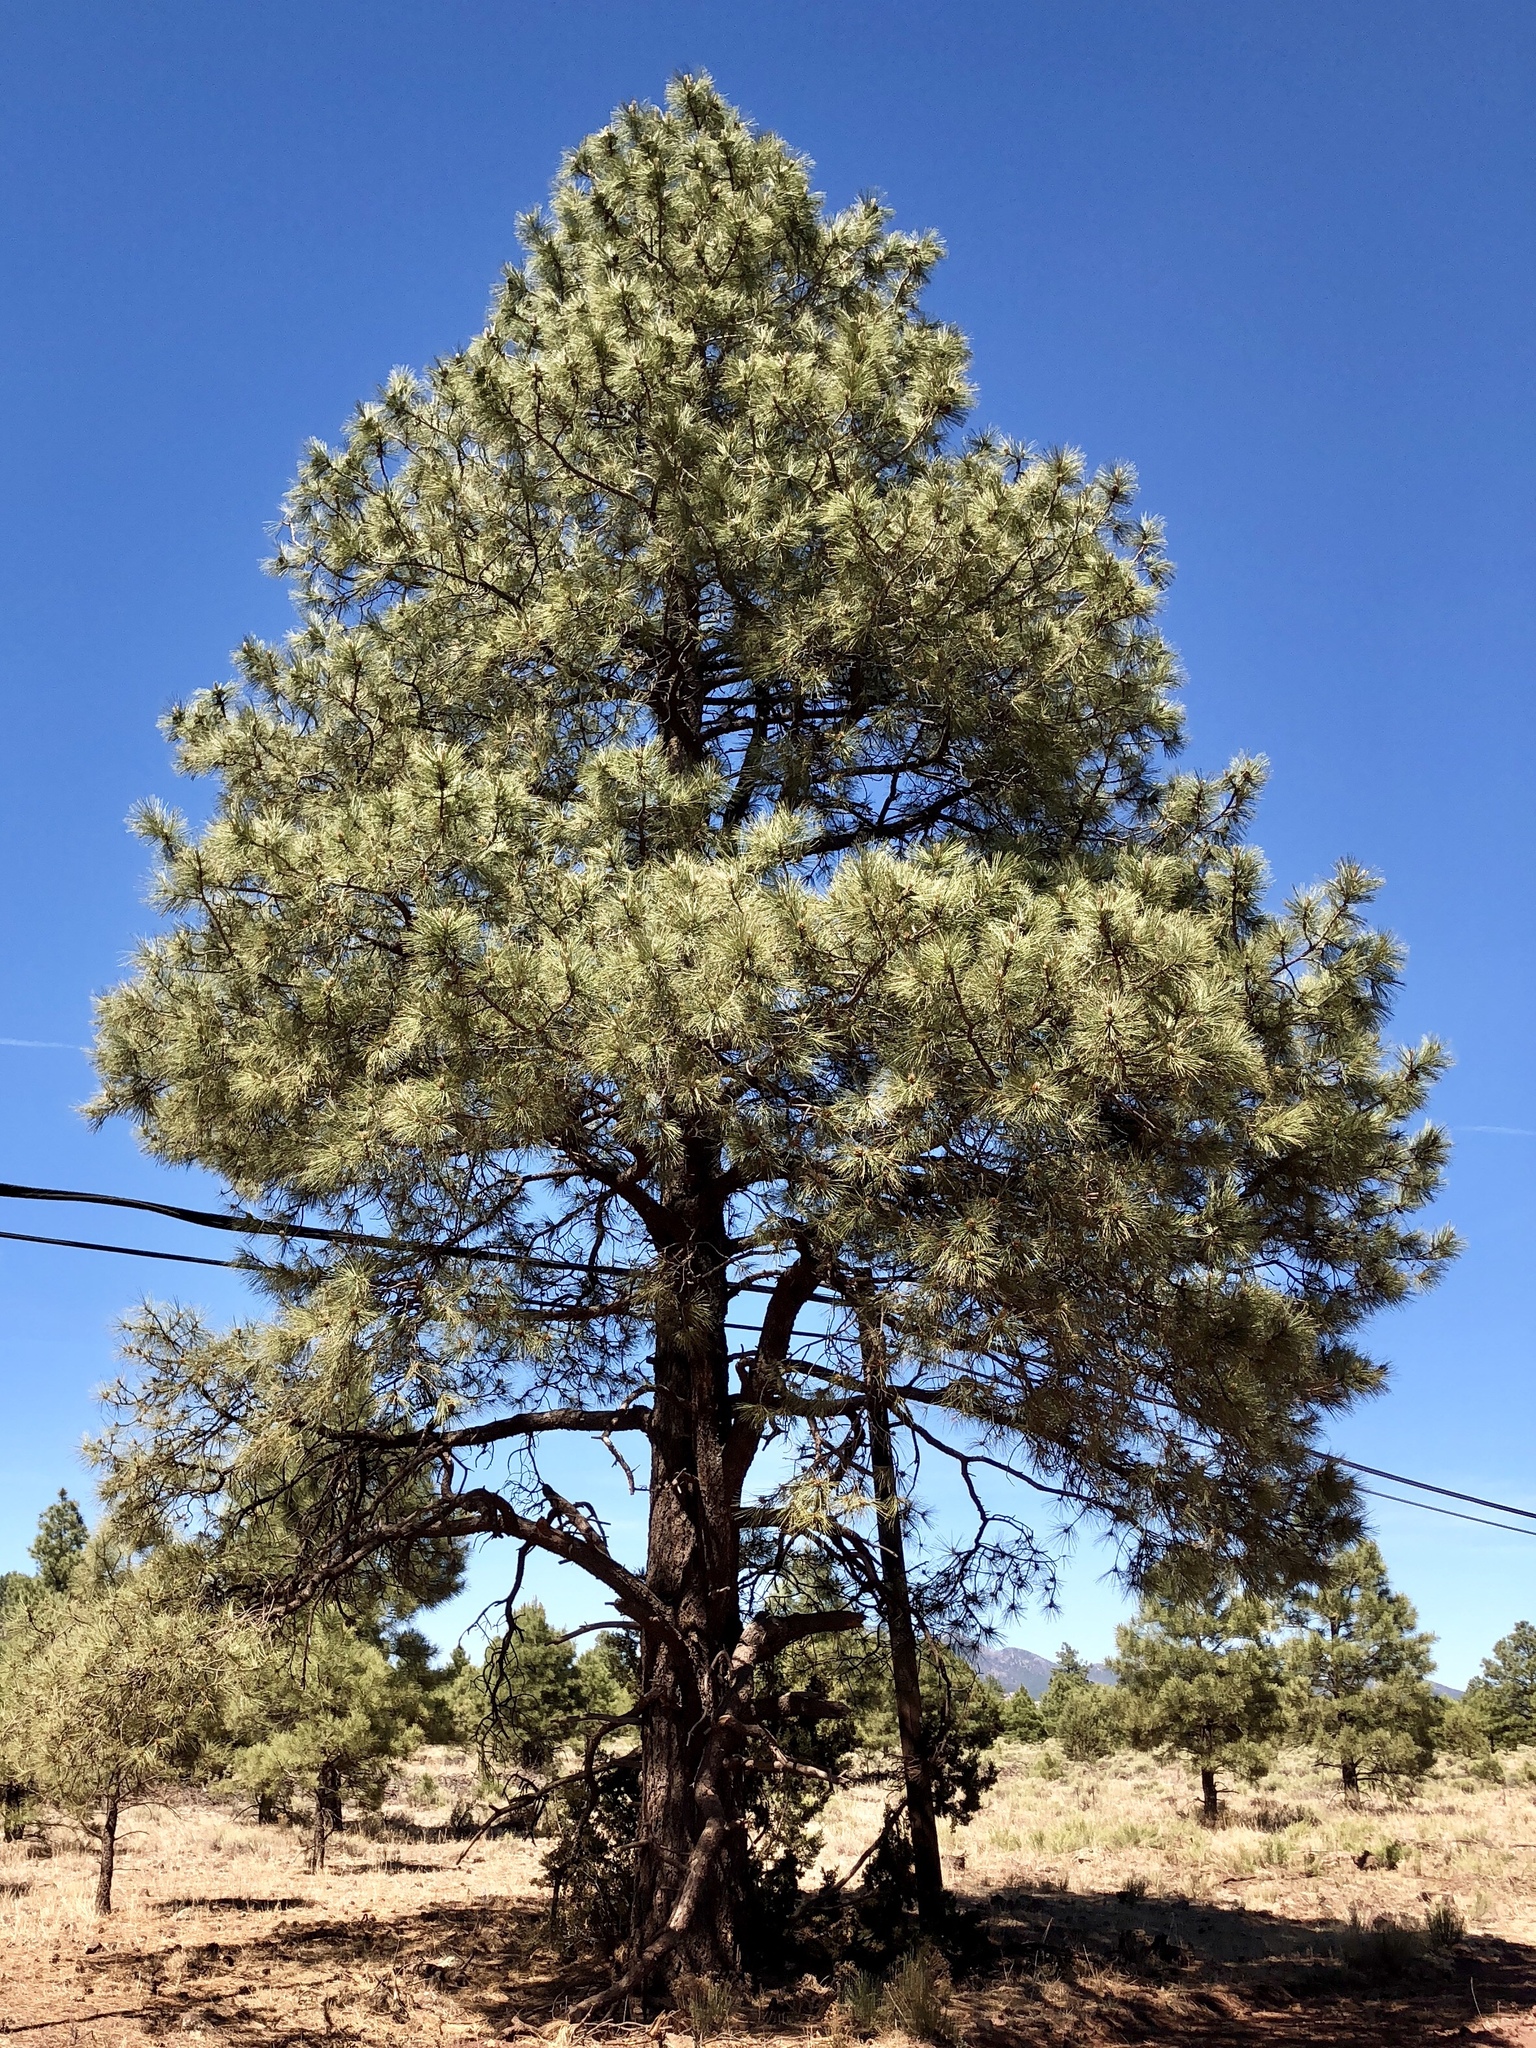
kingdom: Plantae
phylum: Tracheophyta
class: Pinopsida
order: Pinales
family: Pinaceae
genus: Pinus
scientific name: Pinus ponderosa
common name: Western yellow-pine
